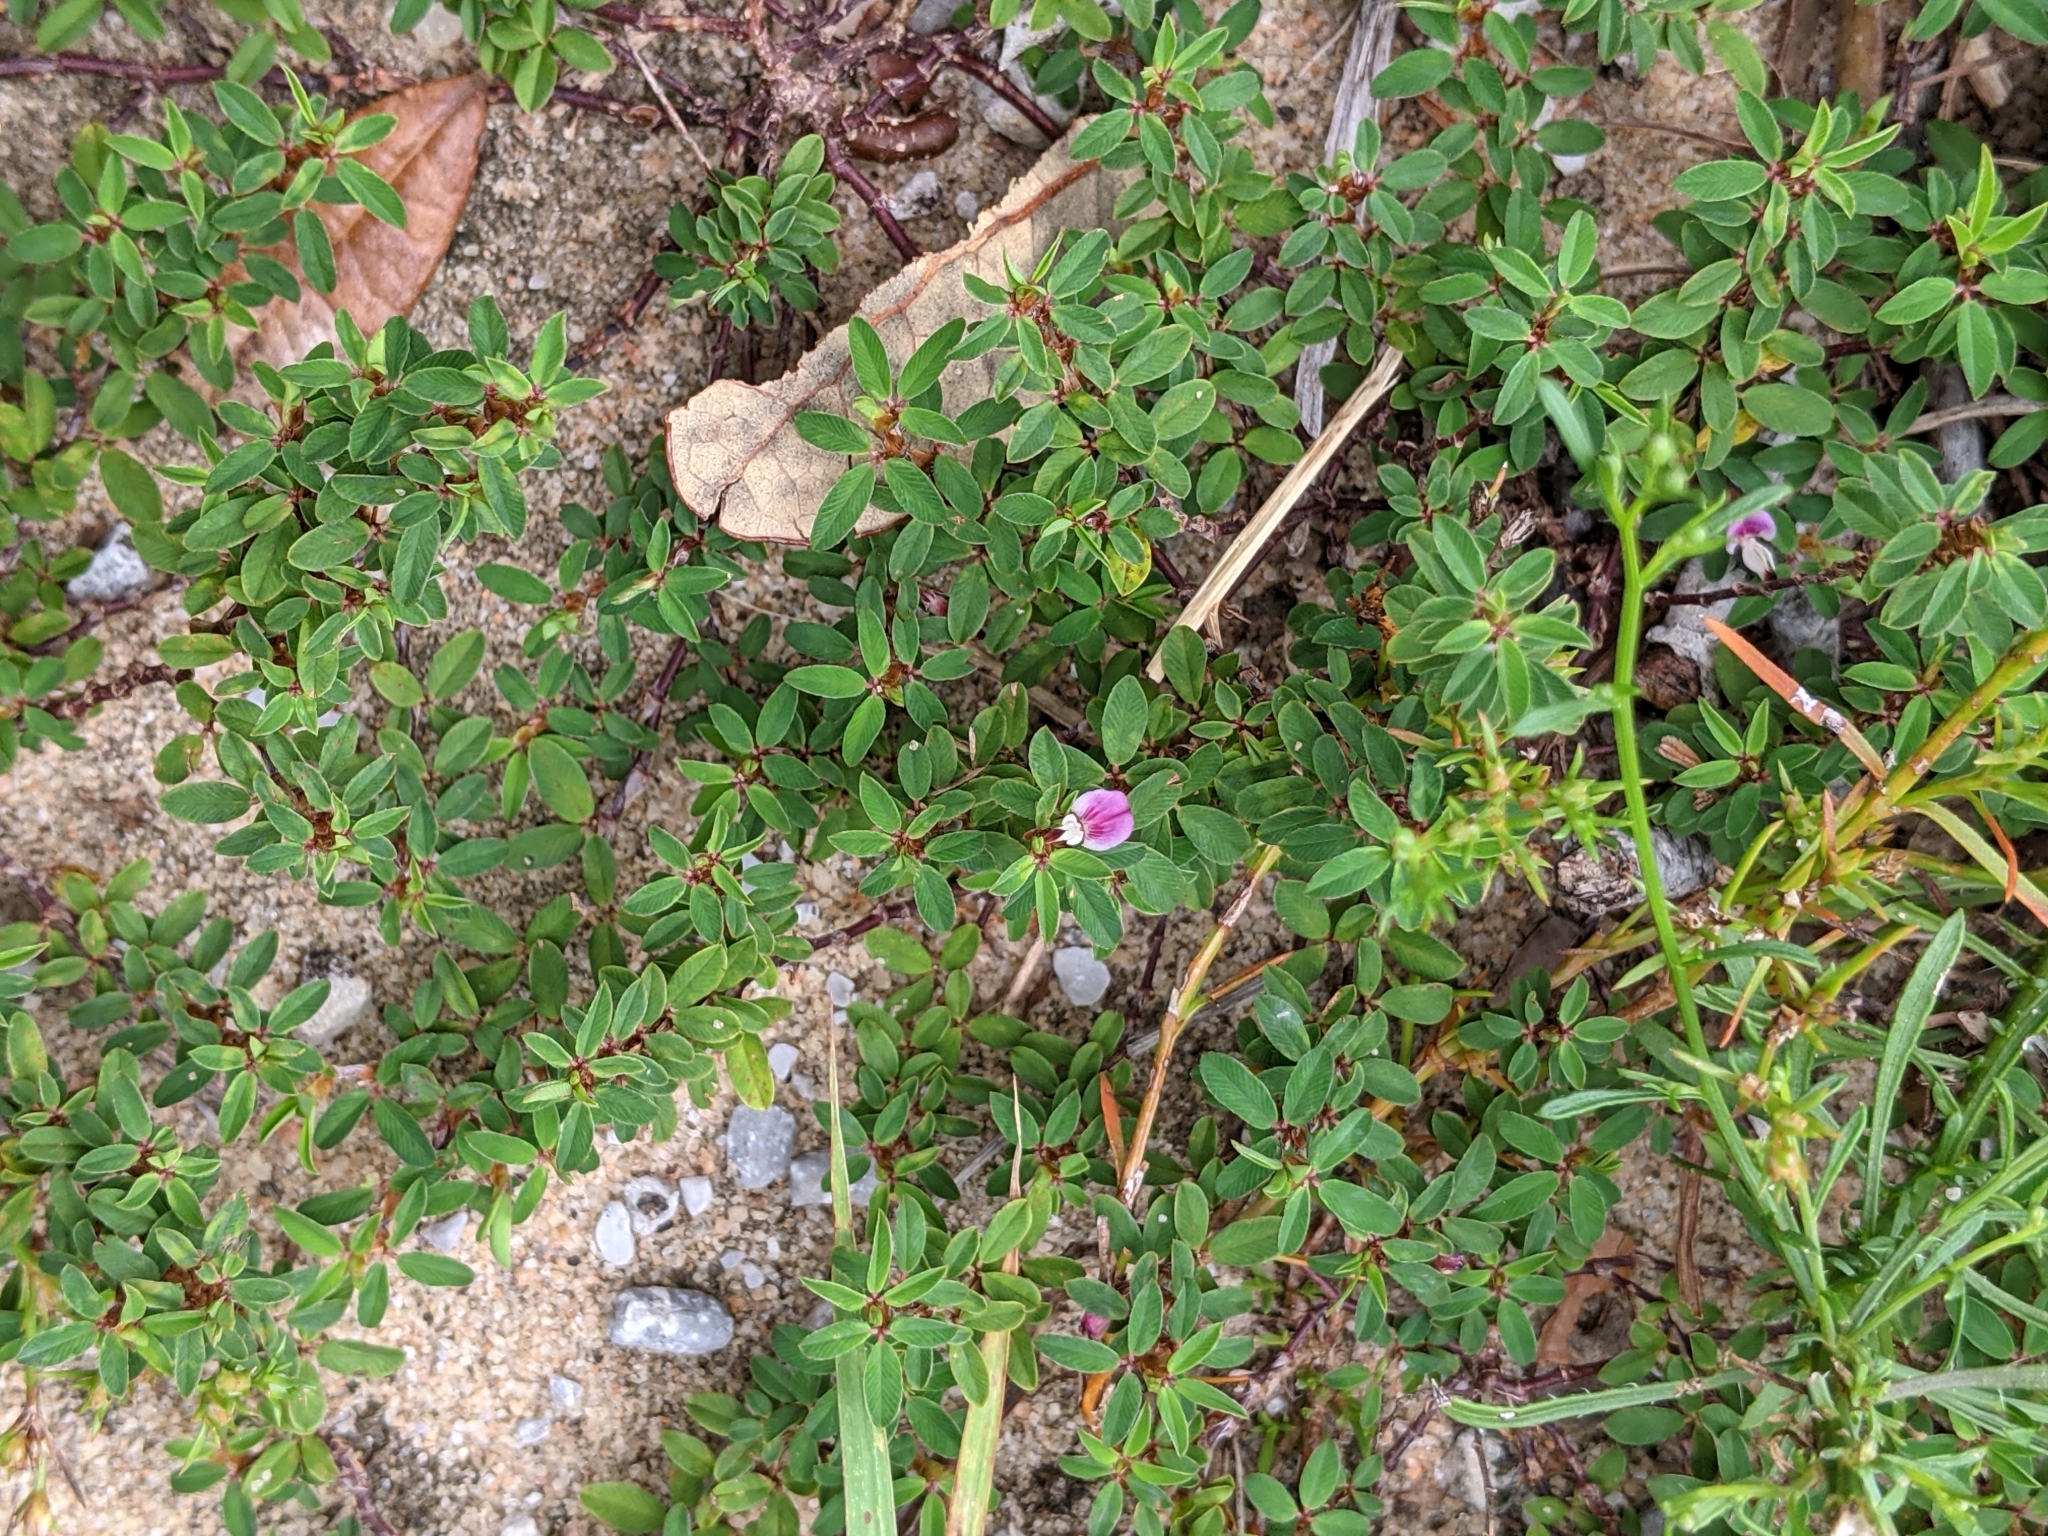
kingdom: Plantae
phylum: Tracheophyta
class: Magnoliopsida
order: Fabales
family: Fabaceae
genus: Kummerowia
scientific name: Kummerowia striata
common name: Japanese clover
